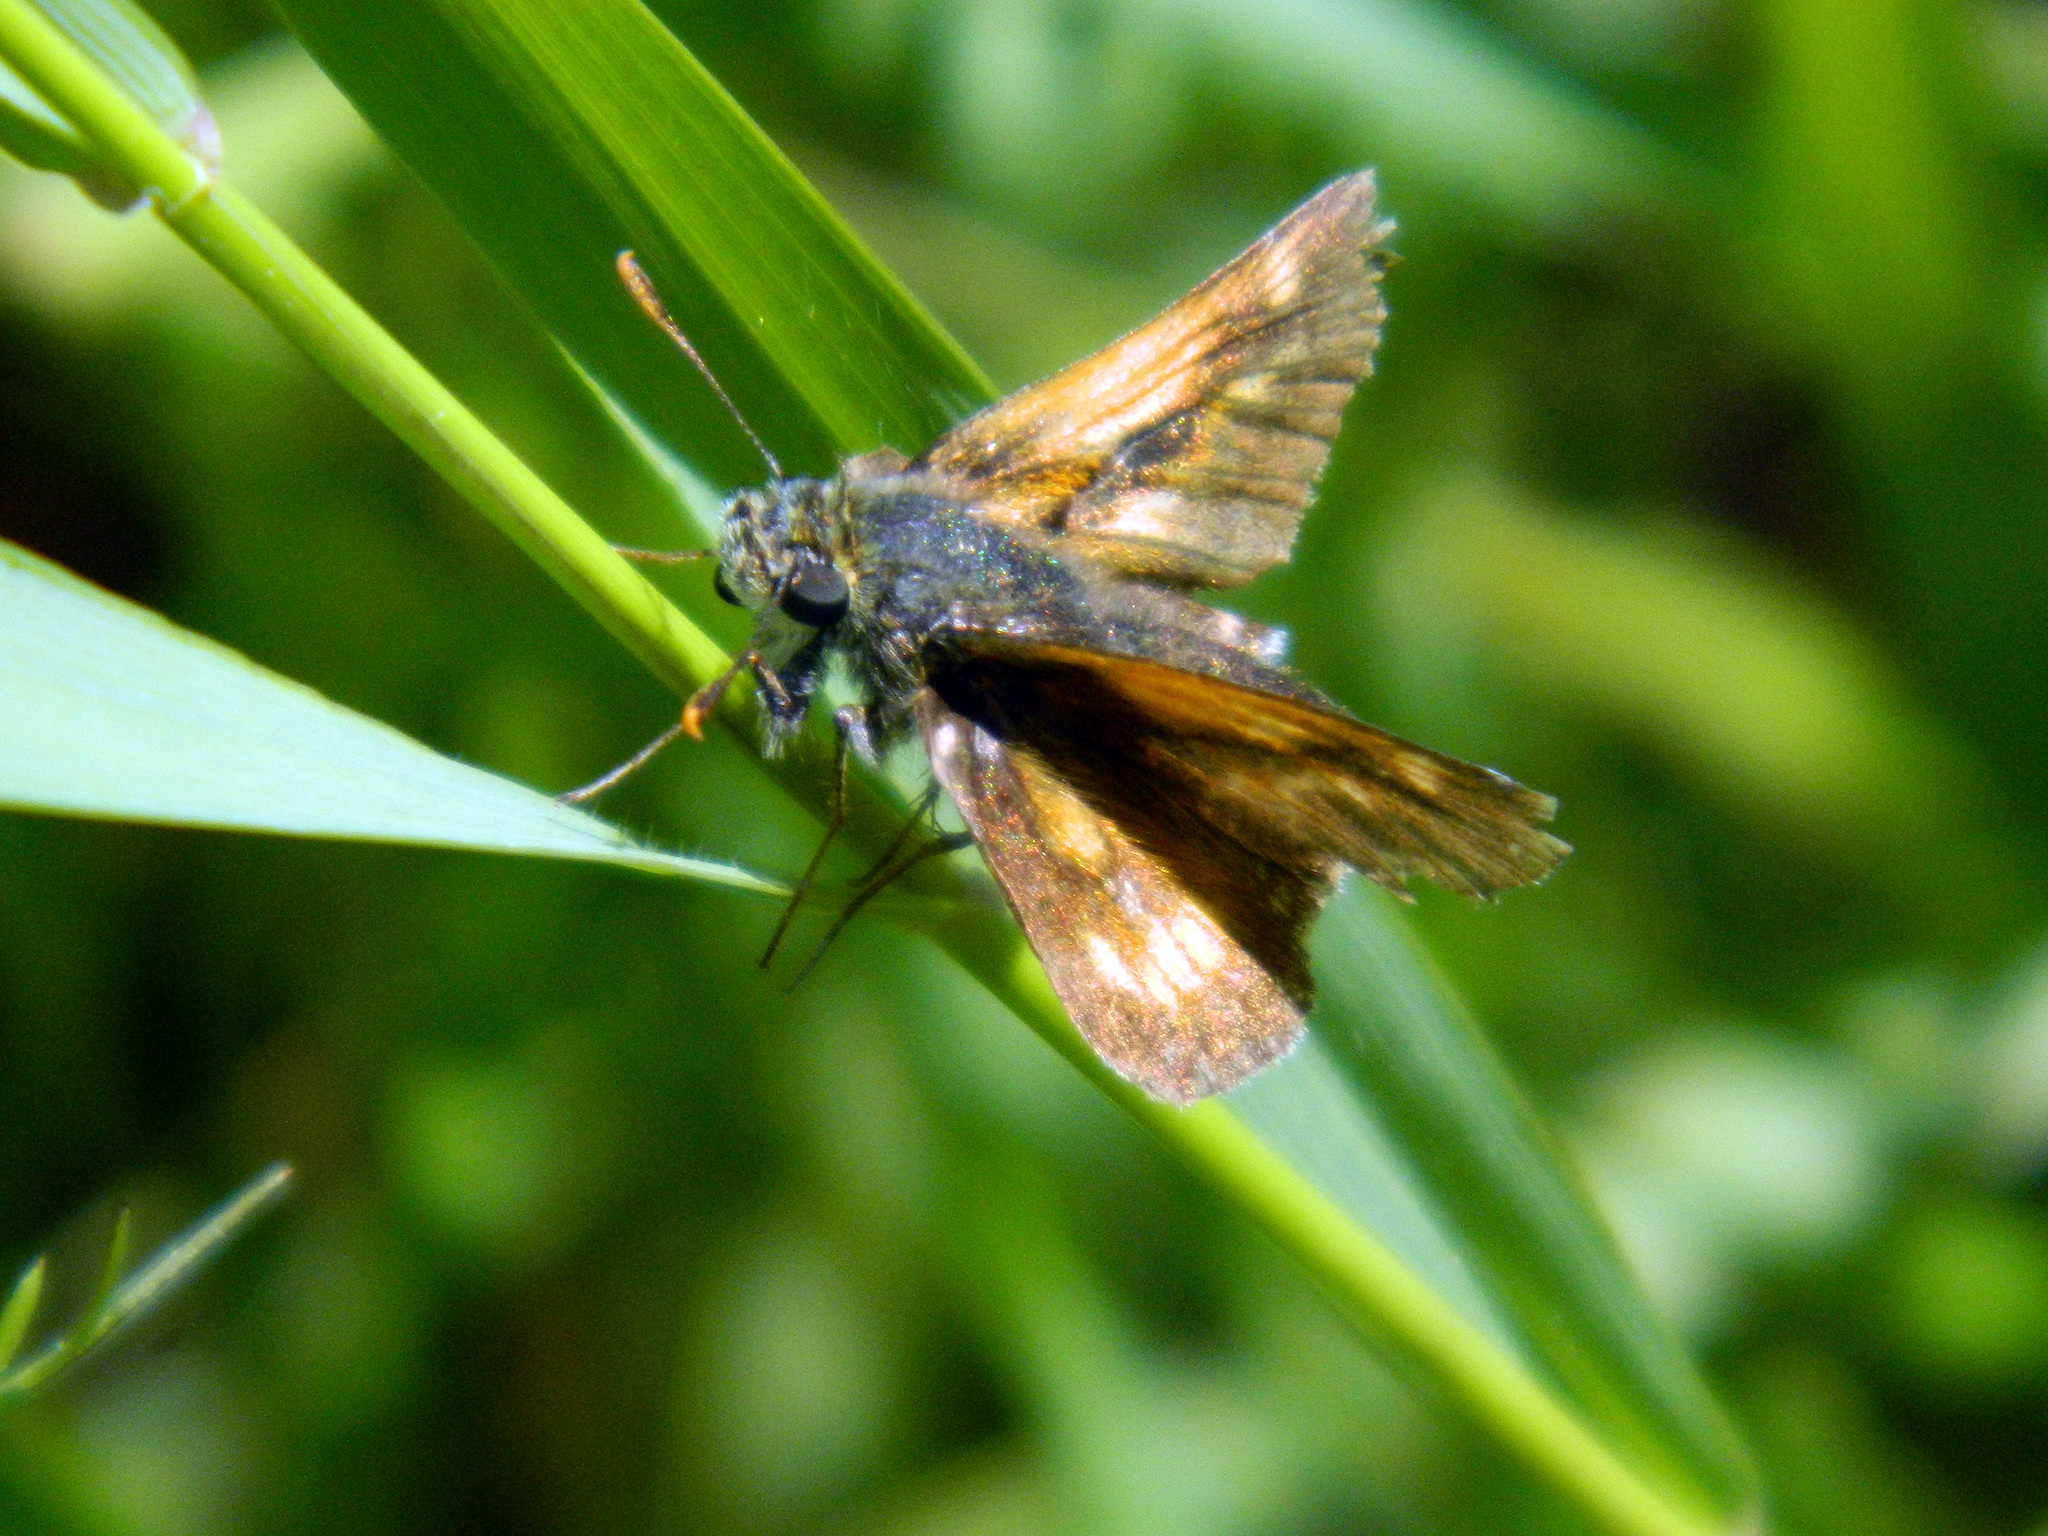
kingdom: Animalia
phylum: Arthropoda
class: Insecta
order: Lepidoptera
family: Hesperiidae
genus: Polites
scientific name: Polites mystic
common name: Long dash
